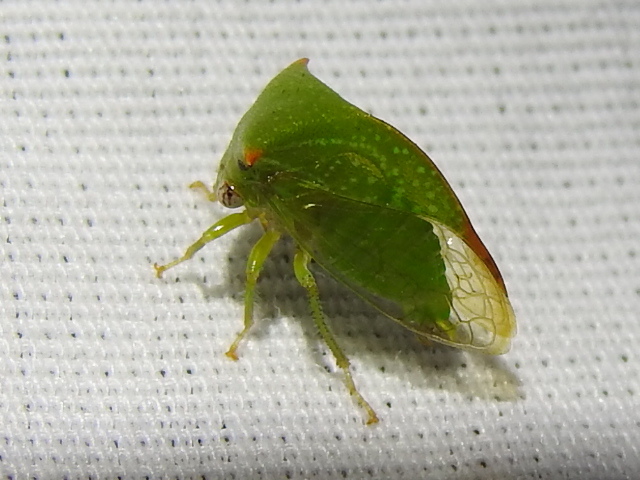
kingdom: Animalia
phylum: Arthropoda
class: Insecta
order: Hemiptera
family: Membracidae
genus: Stictolobus
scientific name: Stictolobus arcuatus
